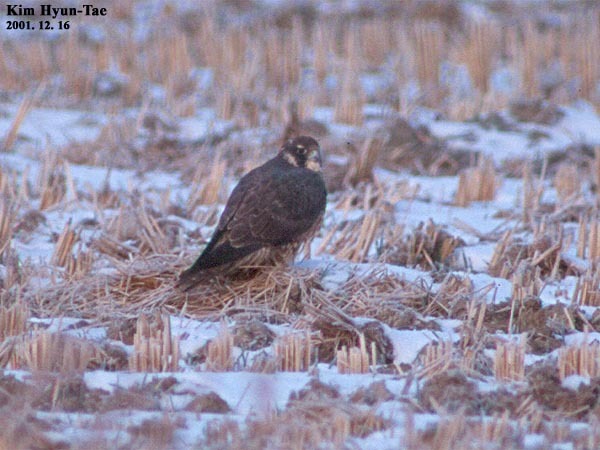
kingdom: Animalia
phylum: Chordata
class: Aves
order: Falconiformes
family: Falconidae
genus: Falco
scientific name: Falco peregrinus
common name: Peregrine falcon
